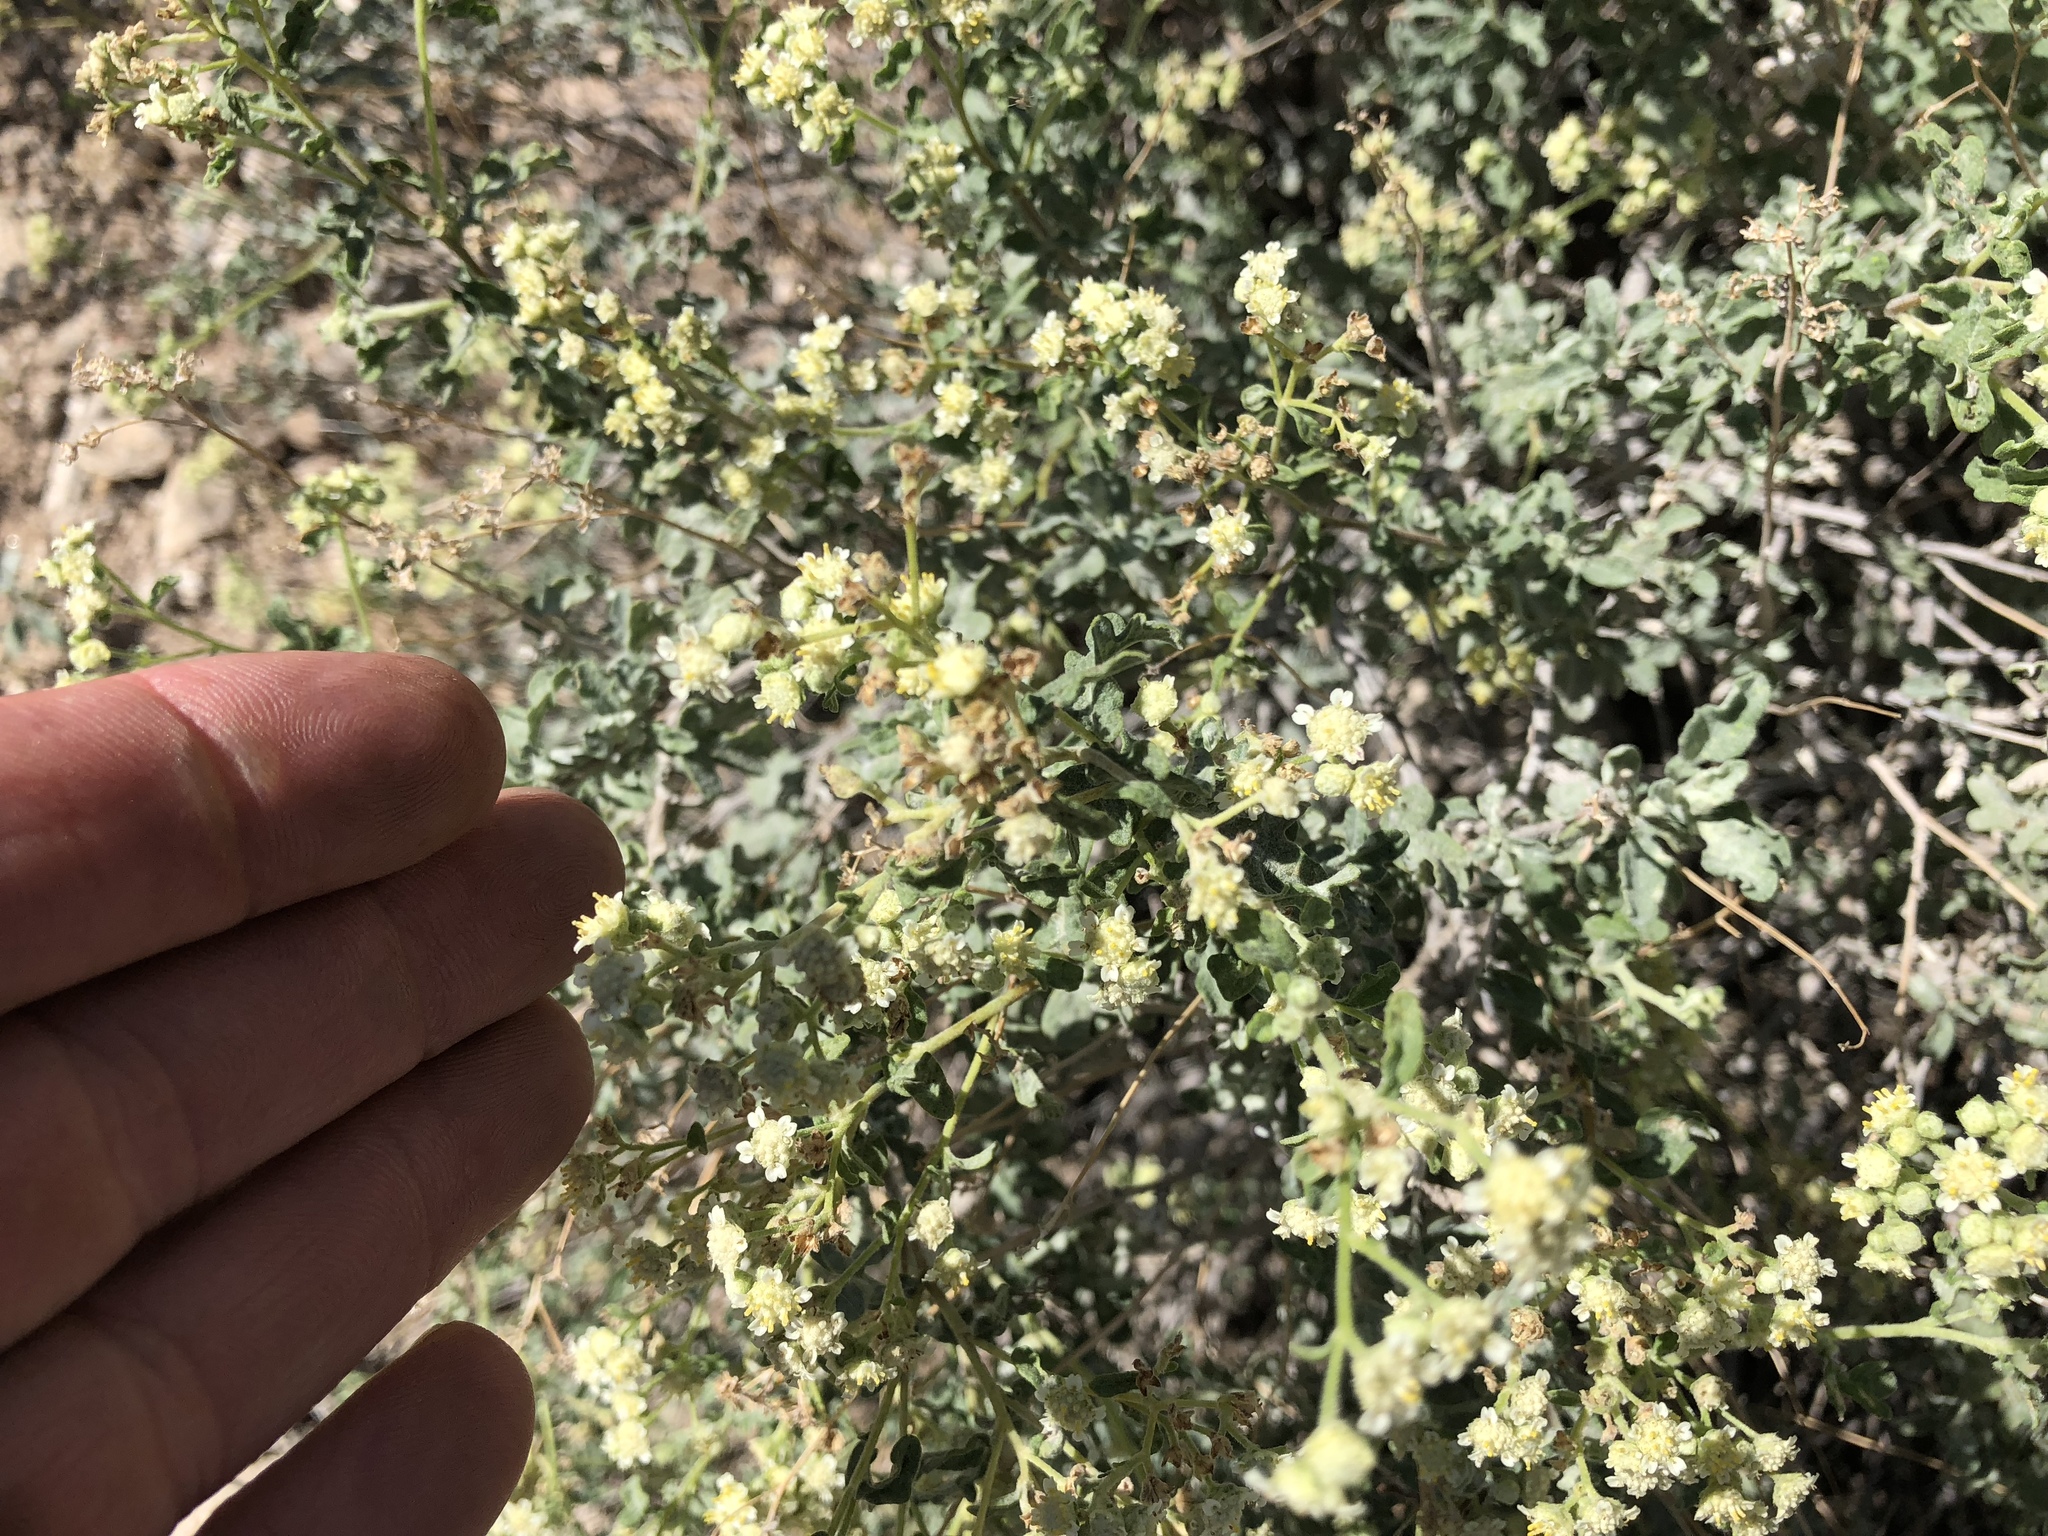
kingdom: Plantae
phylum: Tracheophyta
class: Magnoliopsida
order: Asterales
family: Asteraceae
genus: Parthenium
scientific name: Parthenium incanum
